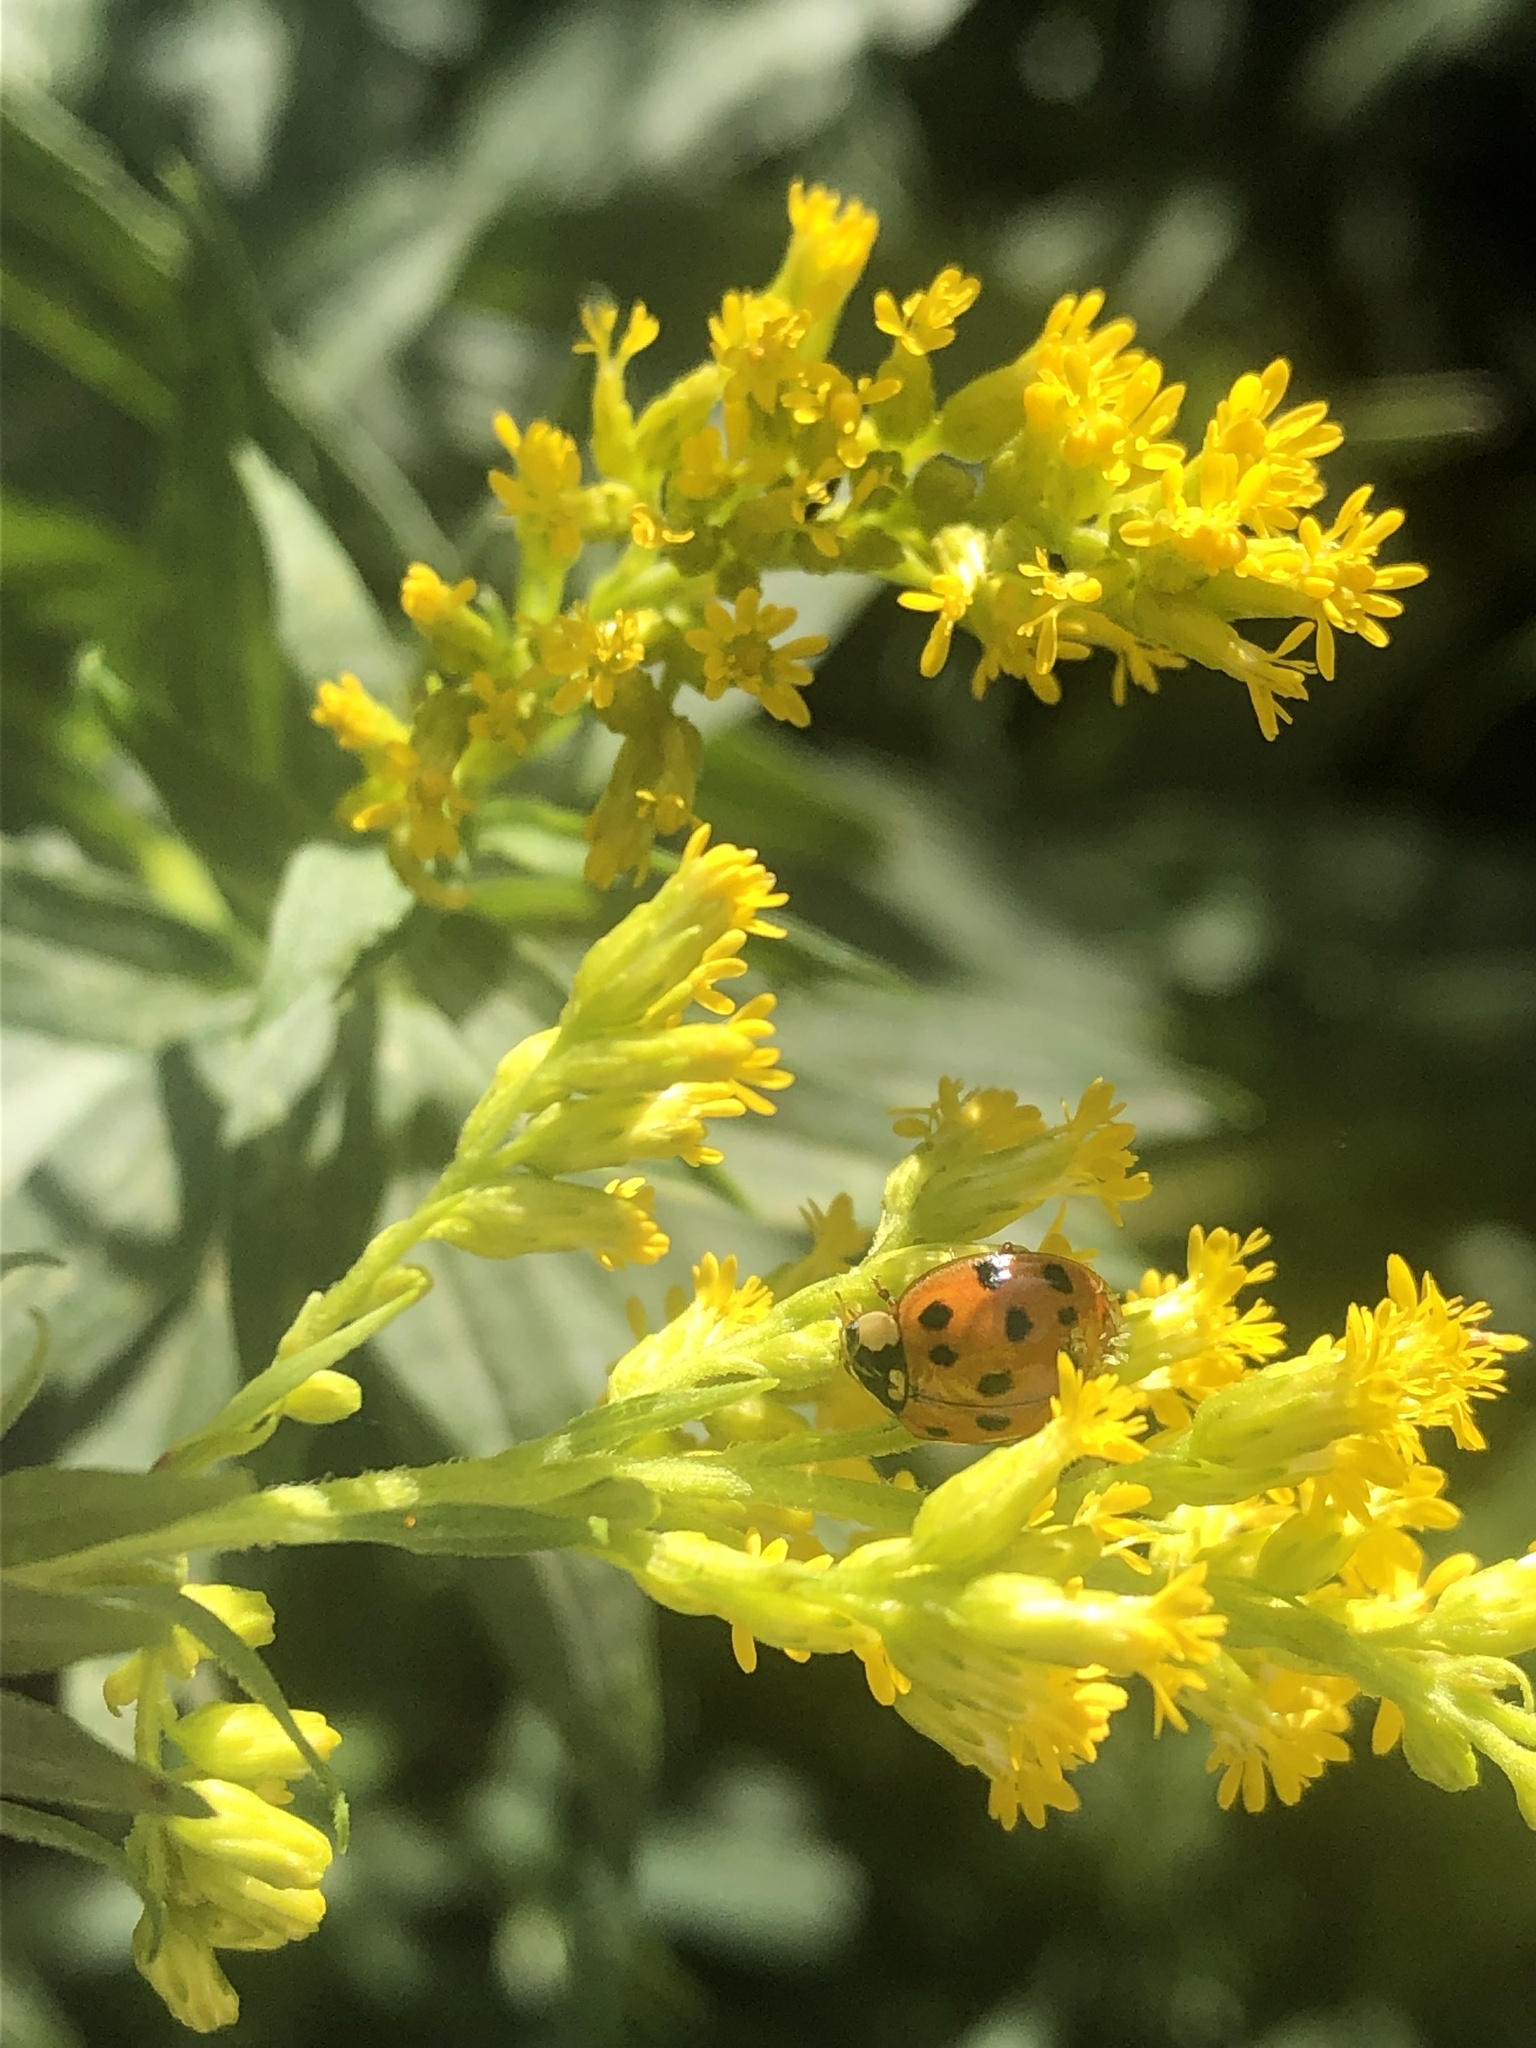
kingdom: Animalia
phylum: Arthropoda
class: Insecta
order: Coleoptera
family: Coccinellidae
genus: Harmonia
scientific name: Harmonia axyridis
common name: Harlequin ladybird
